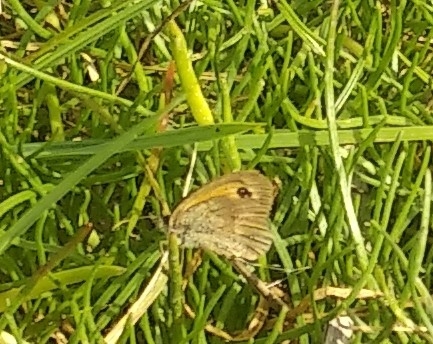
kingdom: Animalia
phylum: Arthropoda
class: Insecta
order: Lepidoptera
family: Nymphalidae
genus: Pyronia
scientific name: Pyronia tithonus
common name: Gatekeeper
